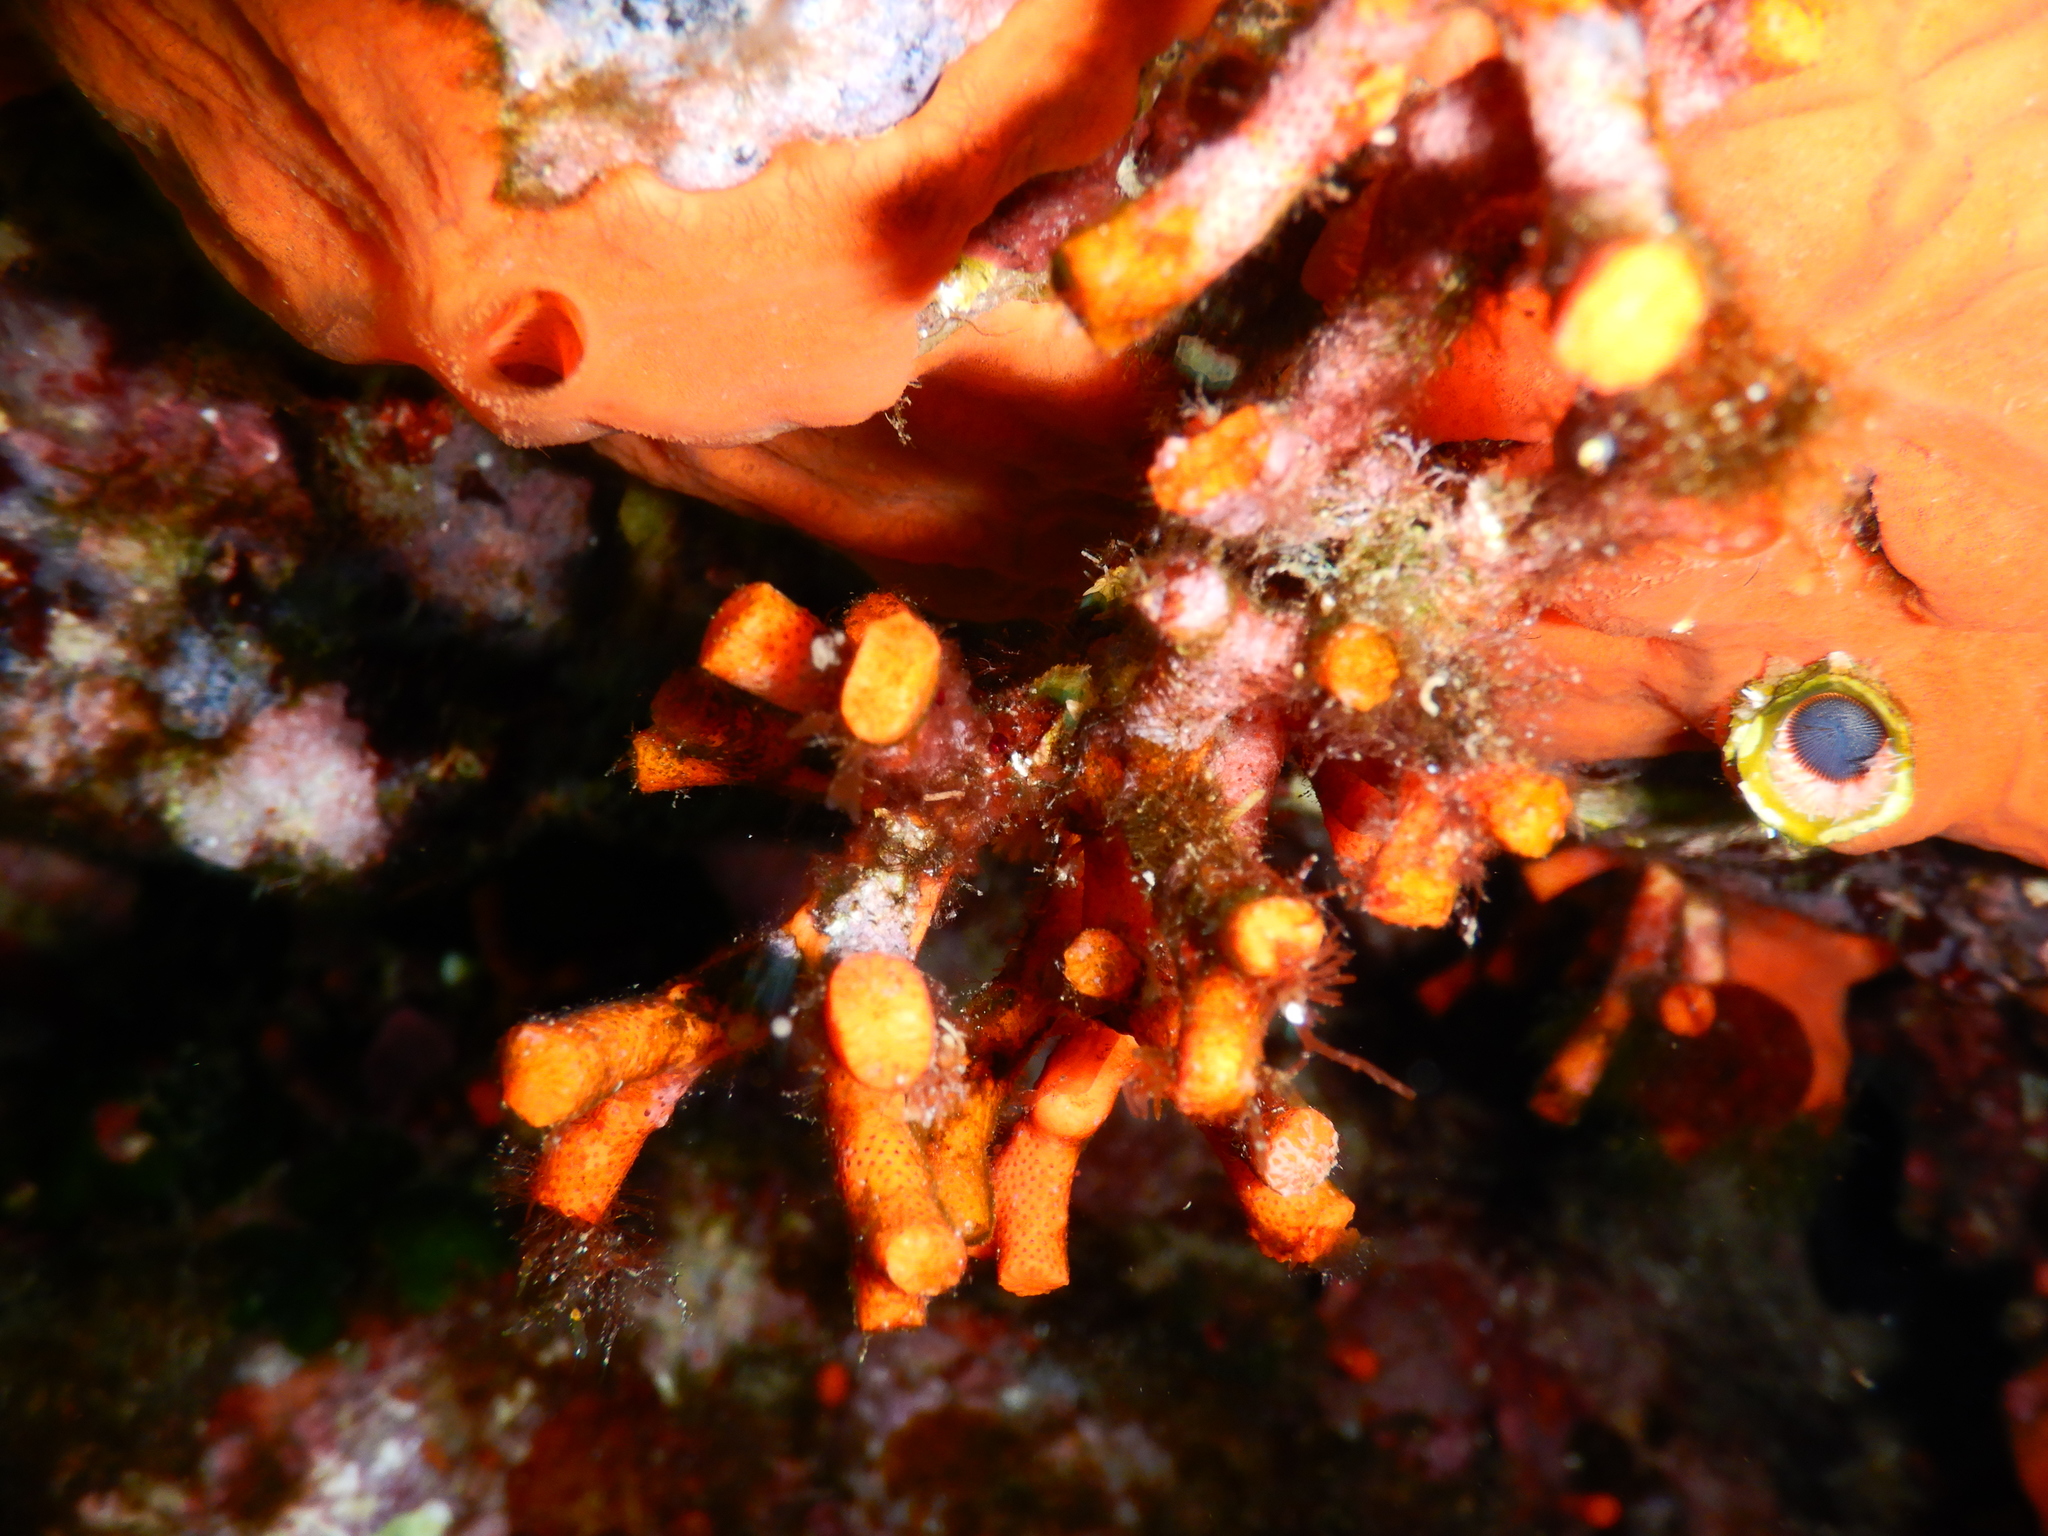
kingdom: Animalia
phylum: Bryozoa
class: Gymnolaemata
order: Cheilostomatida
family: Myriaporidae
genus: Myriapora
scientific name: Myriapora truncata
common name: False coral
